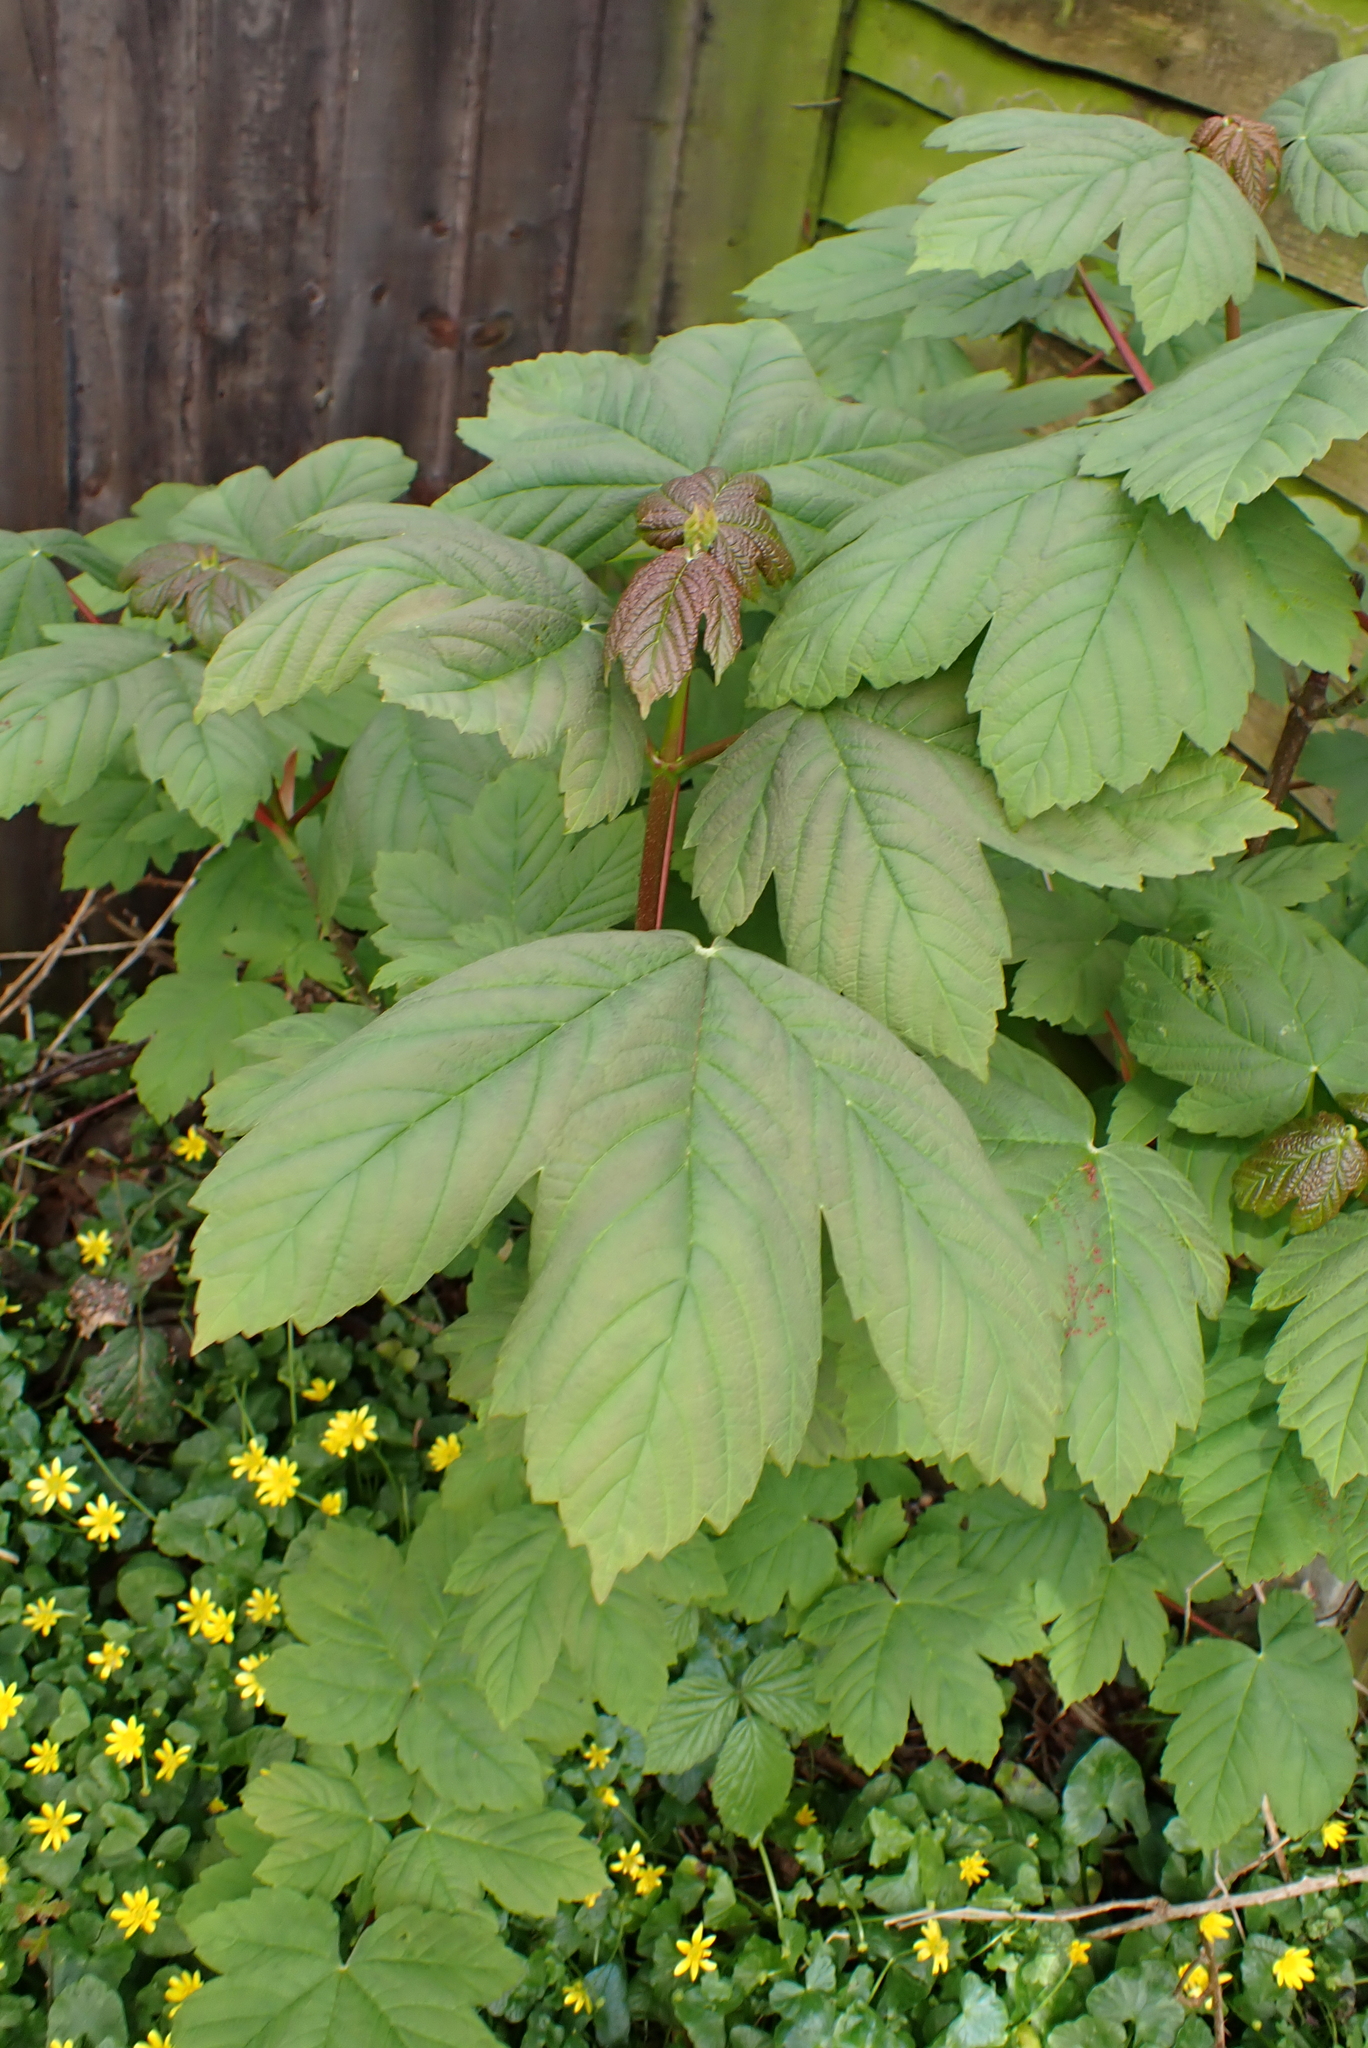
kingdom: Plantae
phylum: Tracheophyta
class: Magnoliopsida
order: Sapindales
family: Sapindaceae
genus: Acer
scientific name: Acer pseudoplatanus
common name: Sycamore
